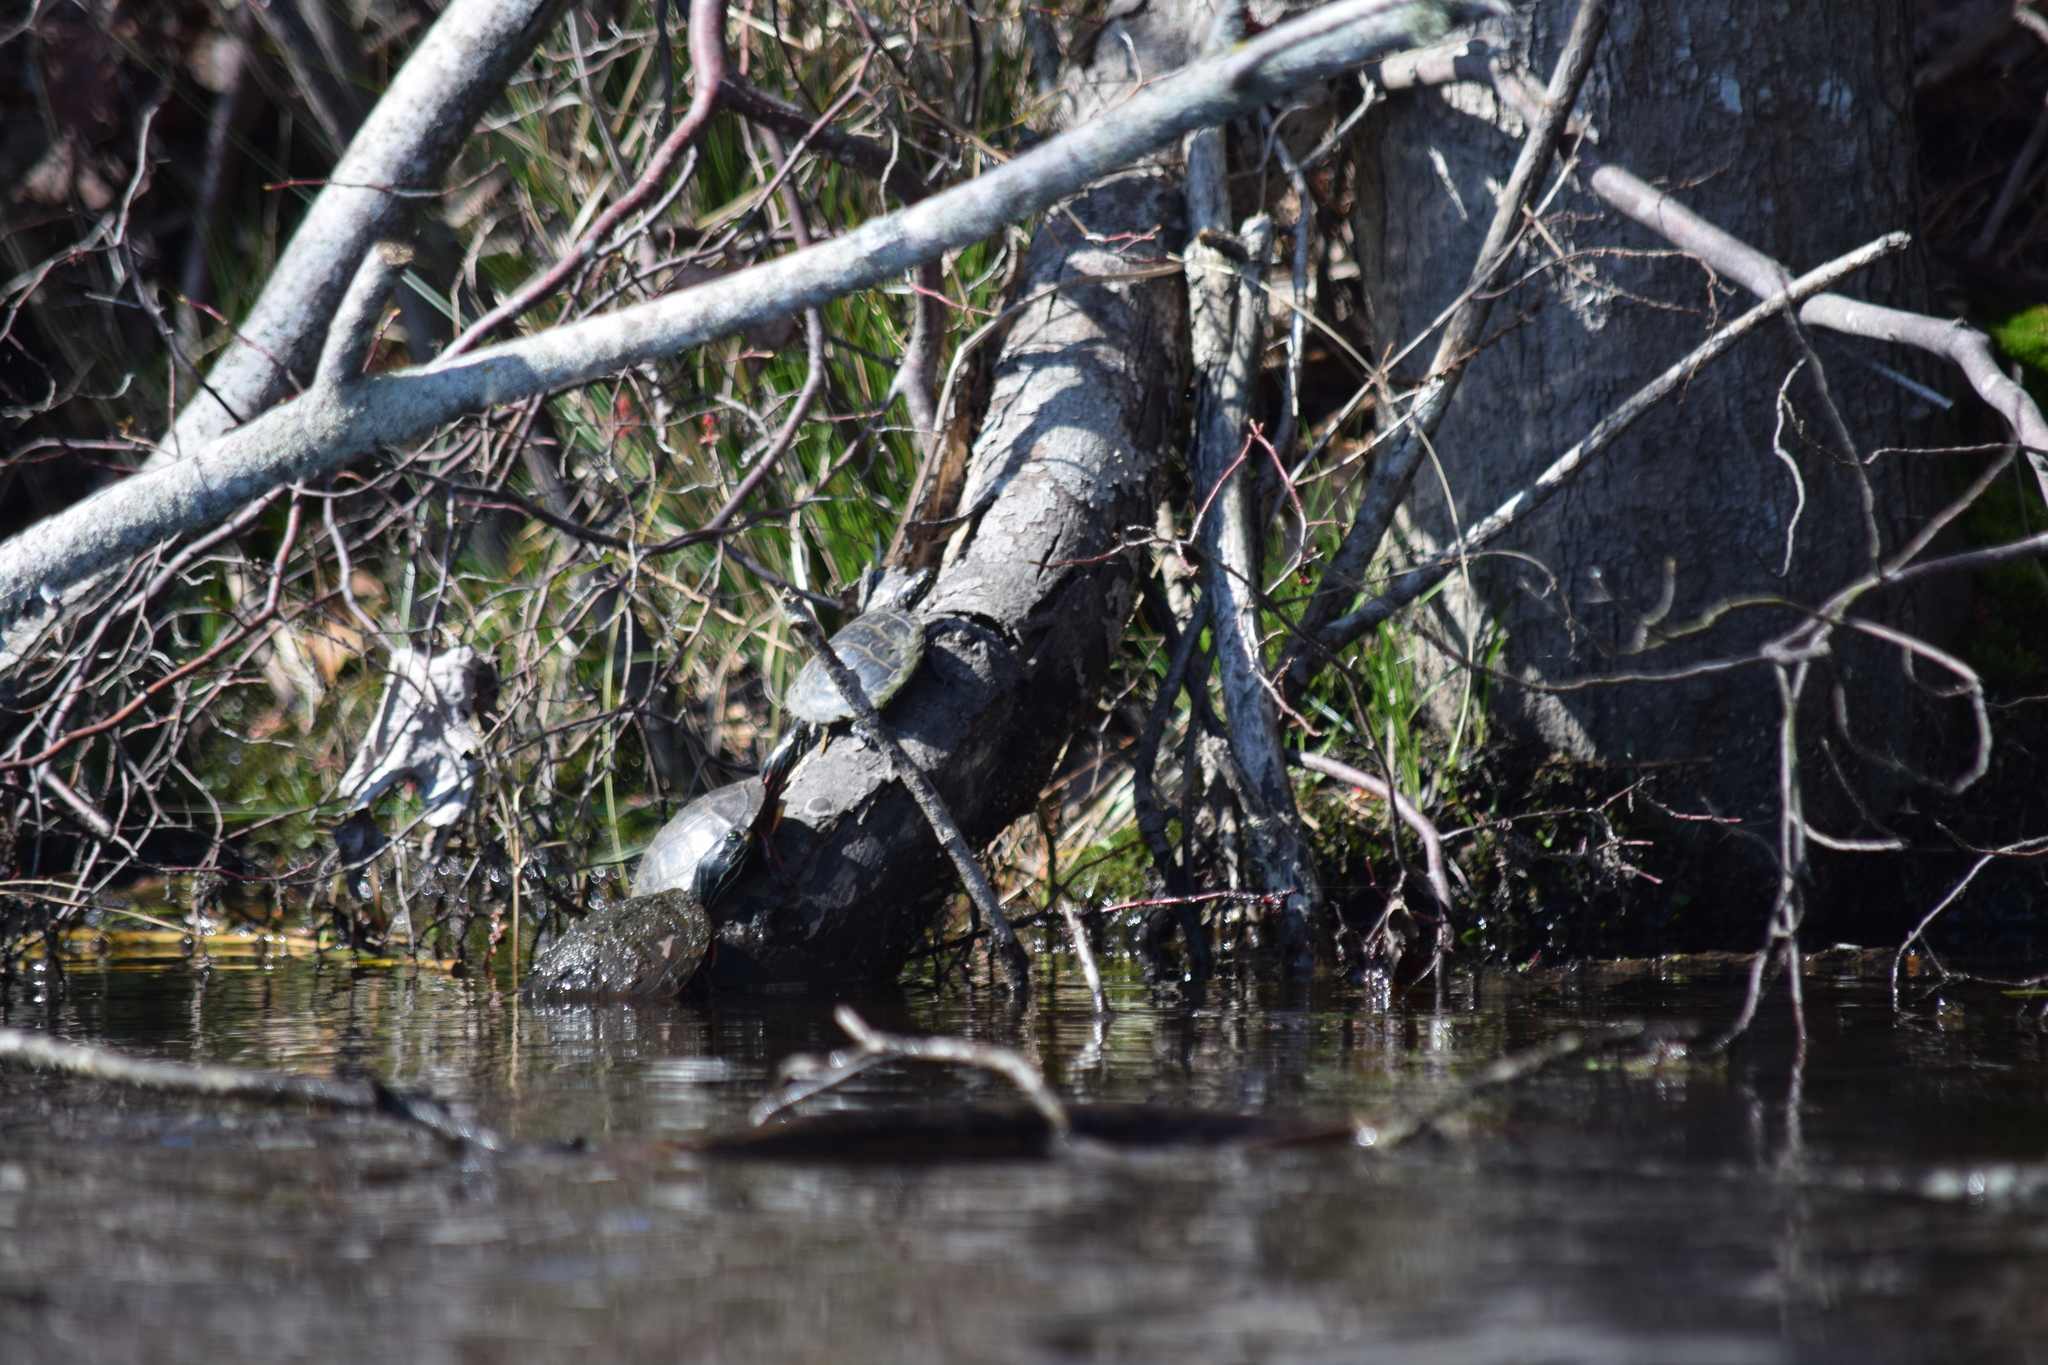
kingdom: Animalia
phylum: Chordata
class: Testudines
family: Emydidae
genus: Chrysemys
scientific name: Chrysemys picta
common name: Painted turtle
